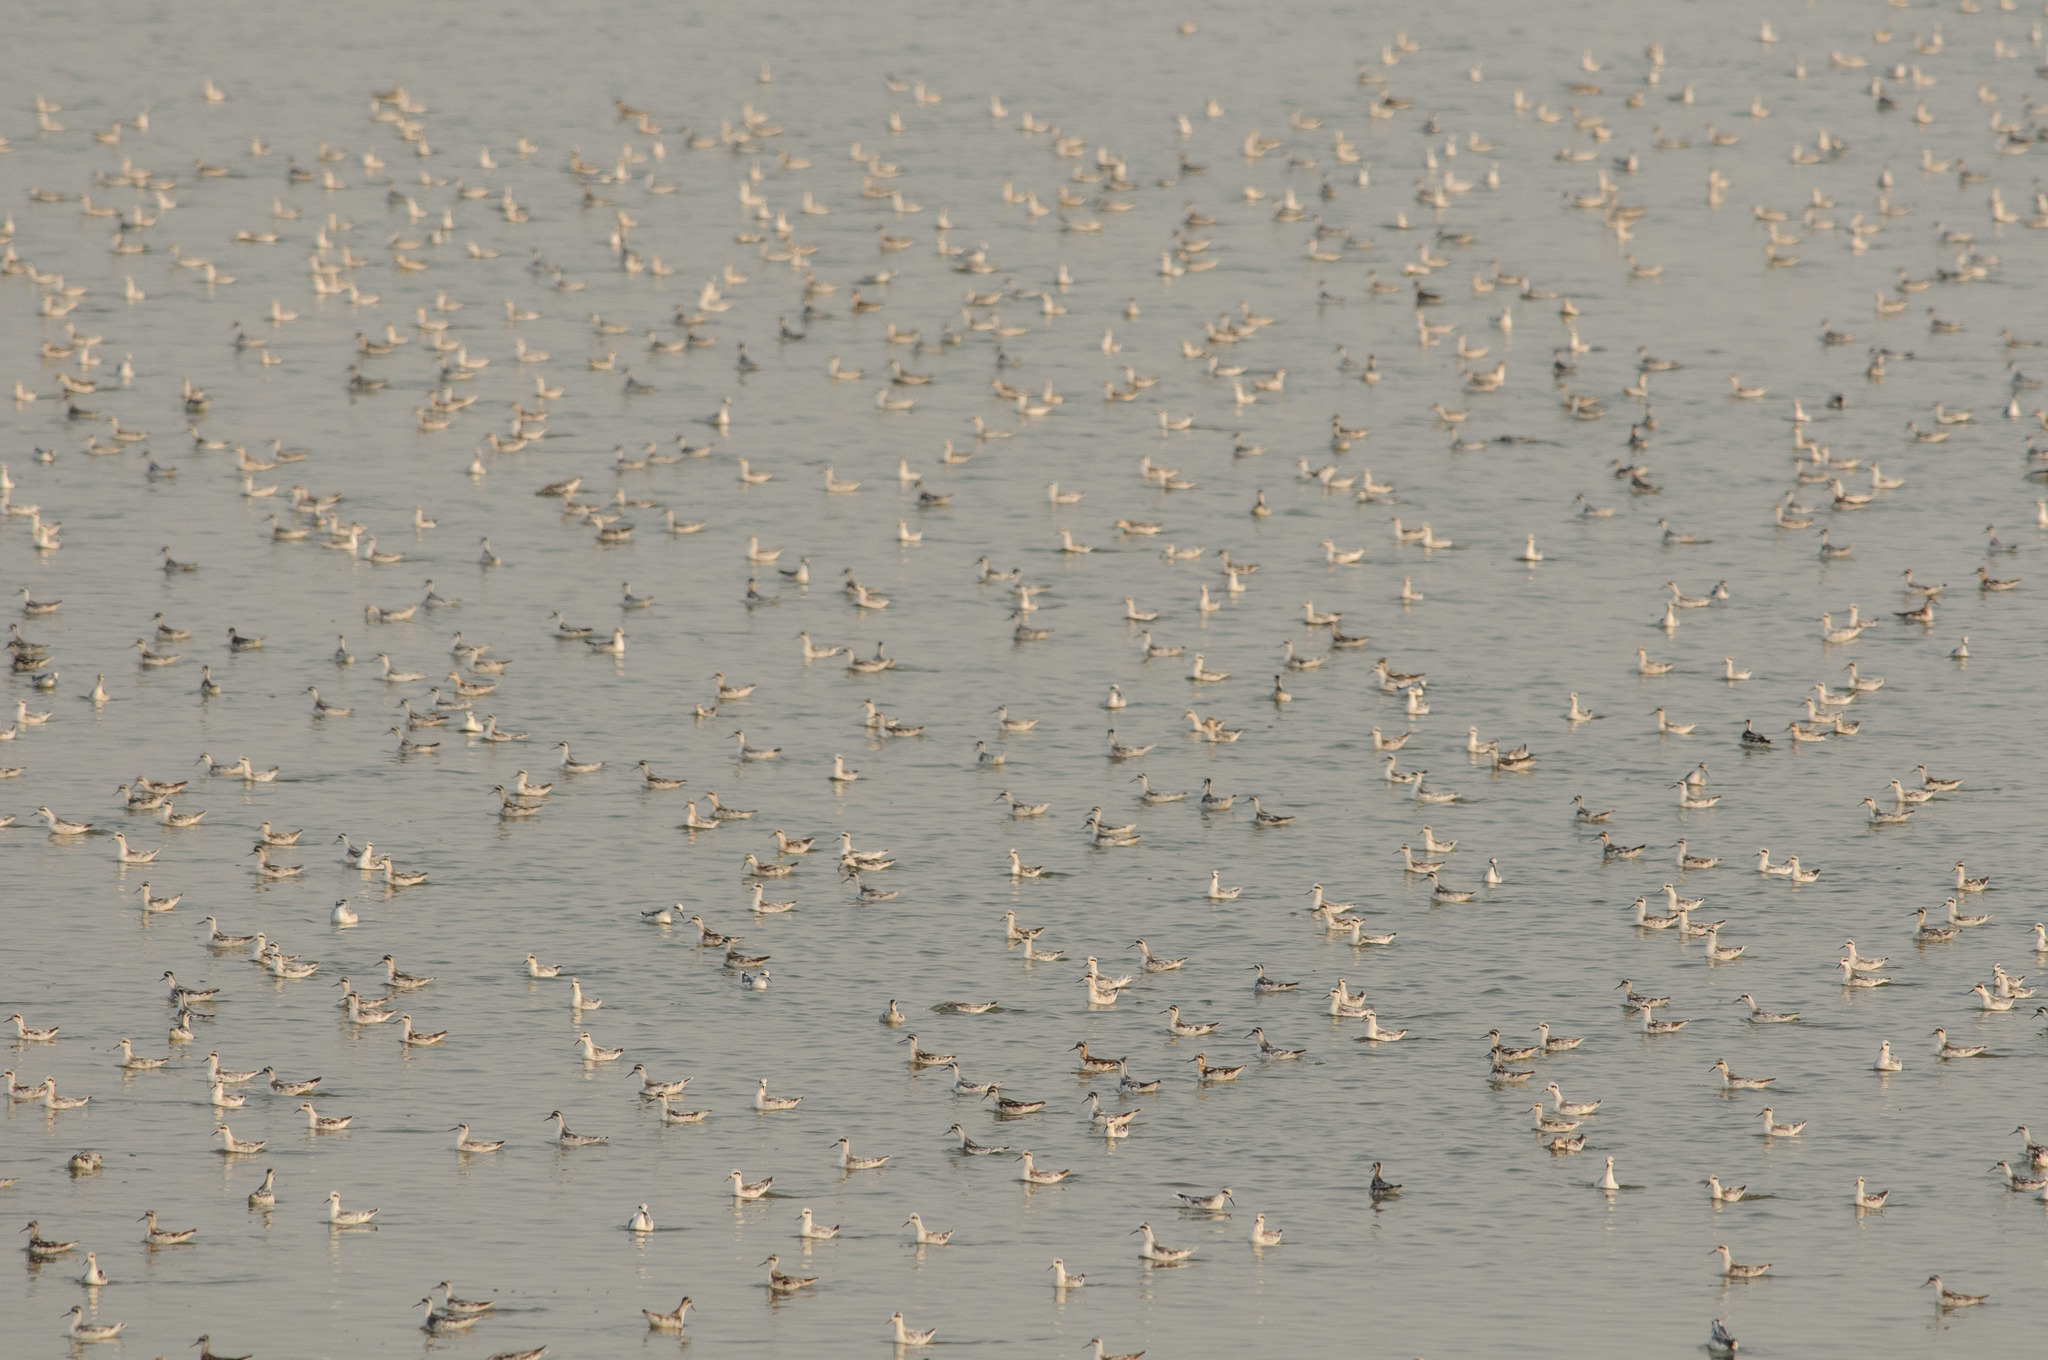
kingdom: Animalia
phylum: Chordata
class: Aves
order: Charadriiformes
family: Scolopacidae
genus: Phalaropus
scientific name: Phalaropus tricolor
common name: Wilson's phalarope
